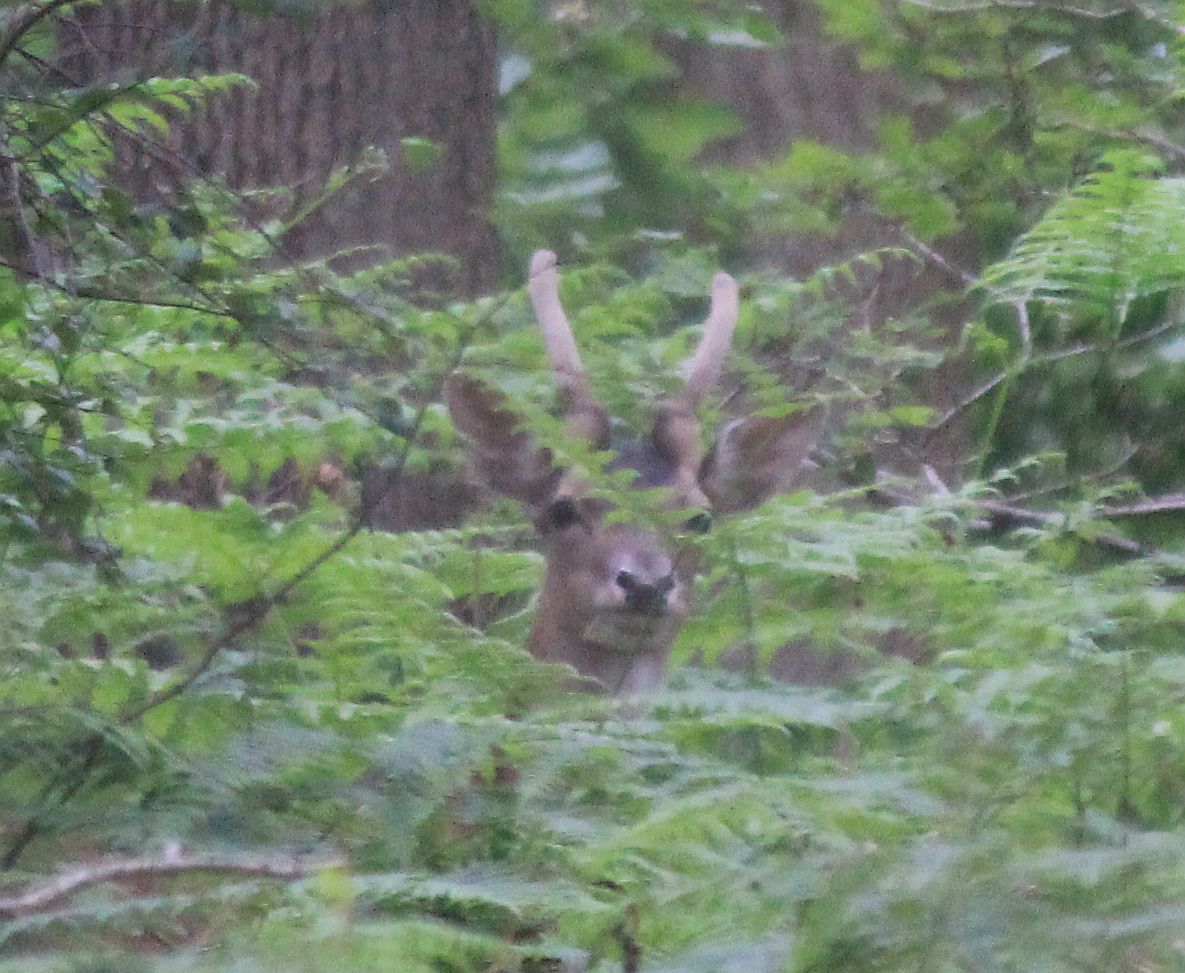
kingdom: Animalia
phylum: Chordata
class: Mammalia
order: Artiodactyla
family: Cervidae
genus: Dama
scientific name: Dama dama
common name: Fallow deer
